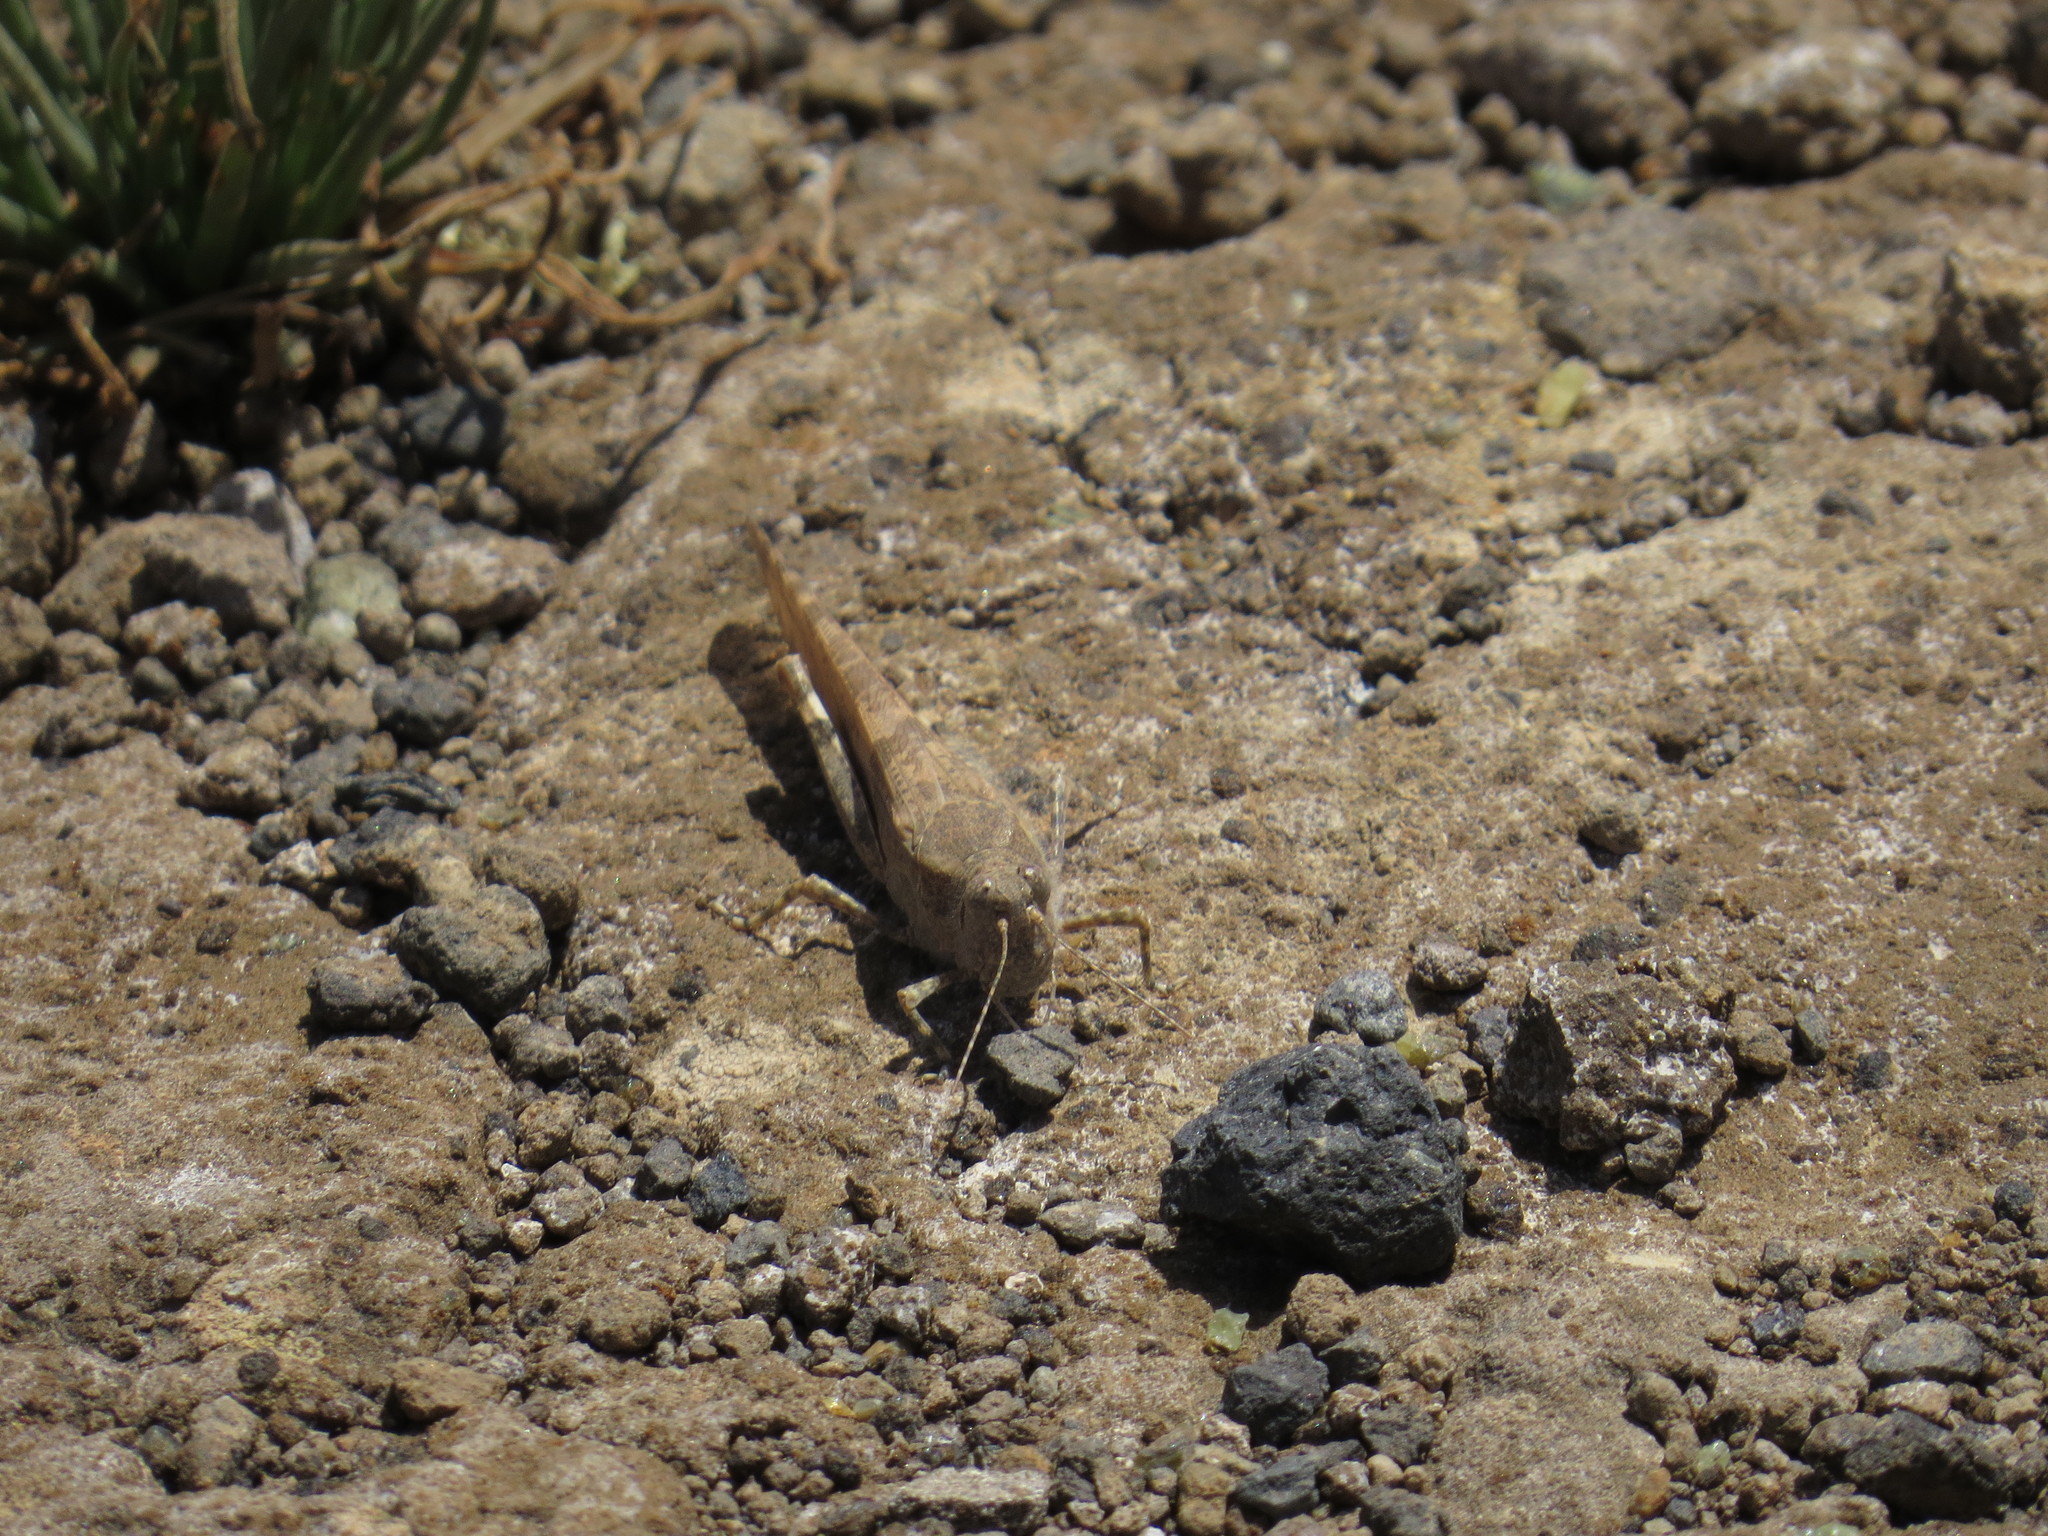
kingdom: Animalia
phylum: Arthropoda
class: Insecta
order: Orthoptera
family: Acrididae
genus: Sphingonotus
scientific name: Sphingonotus rubescens
